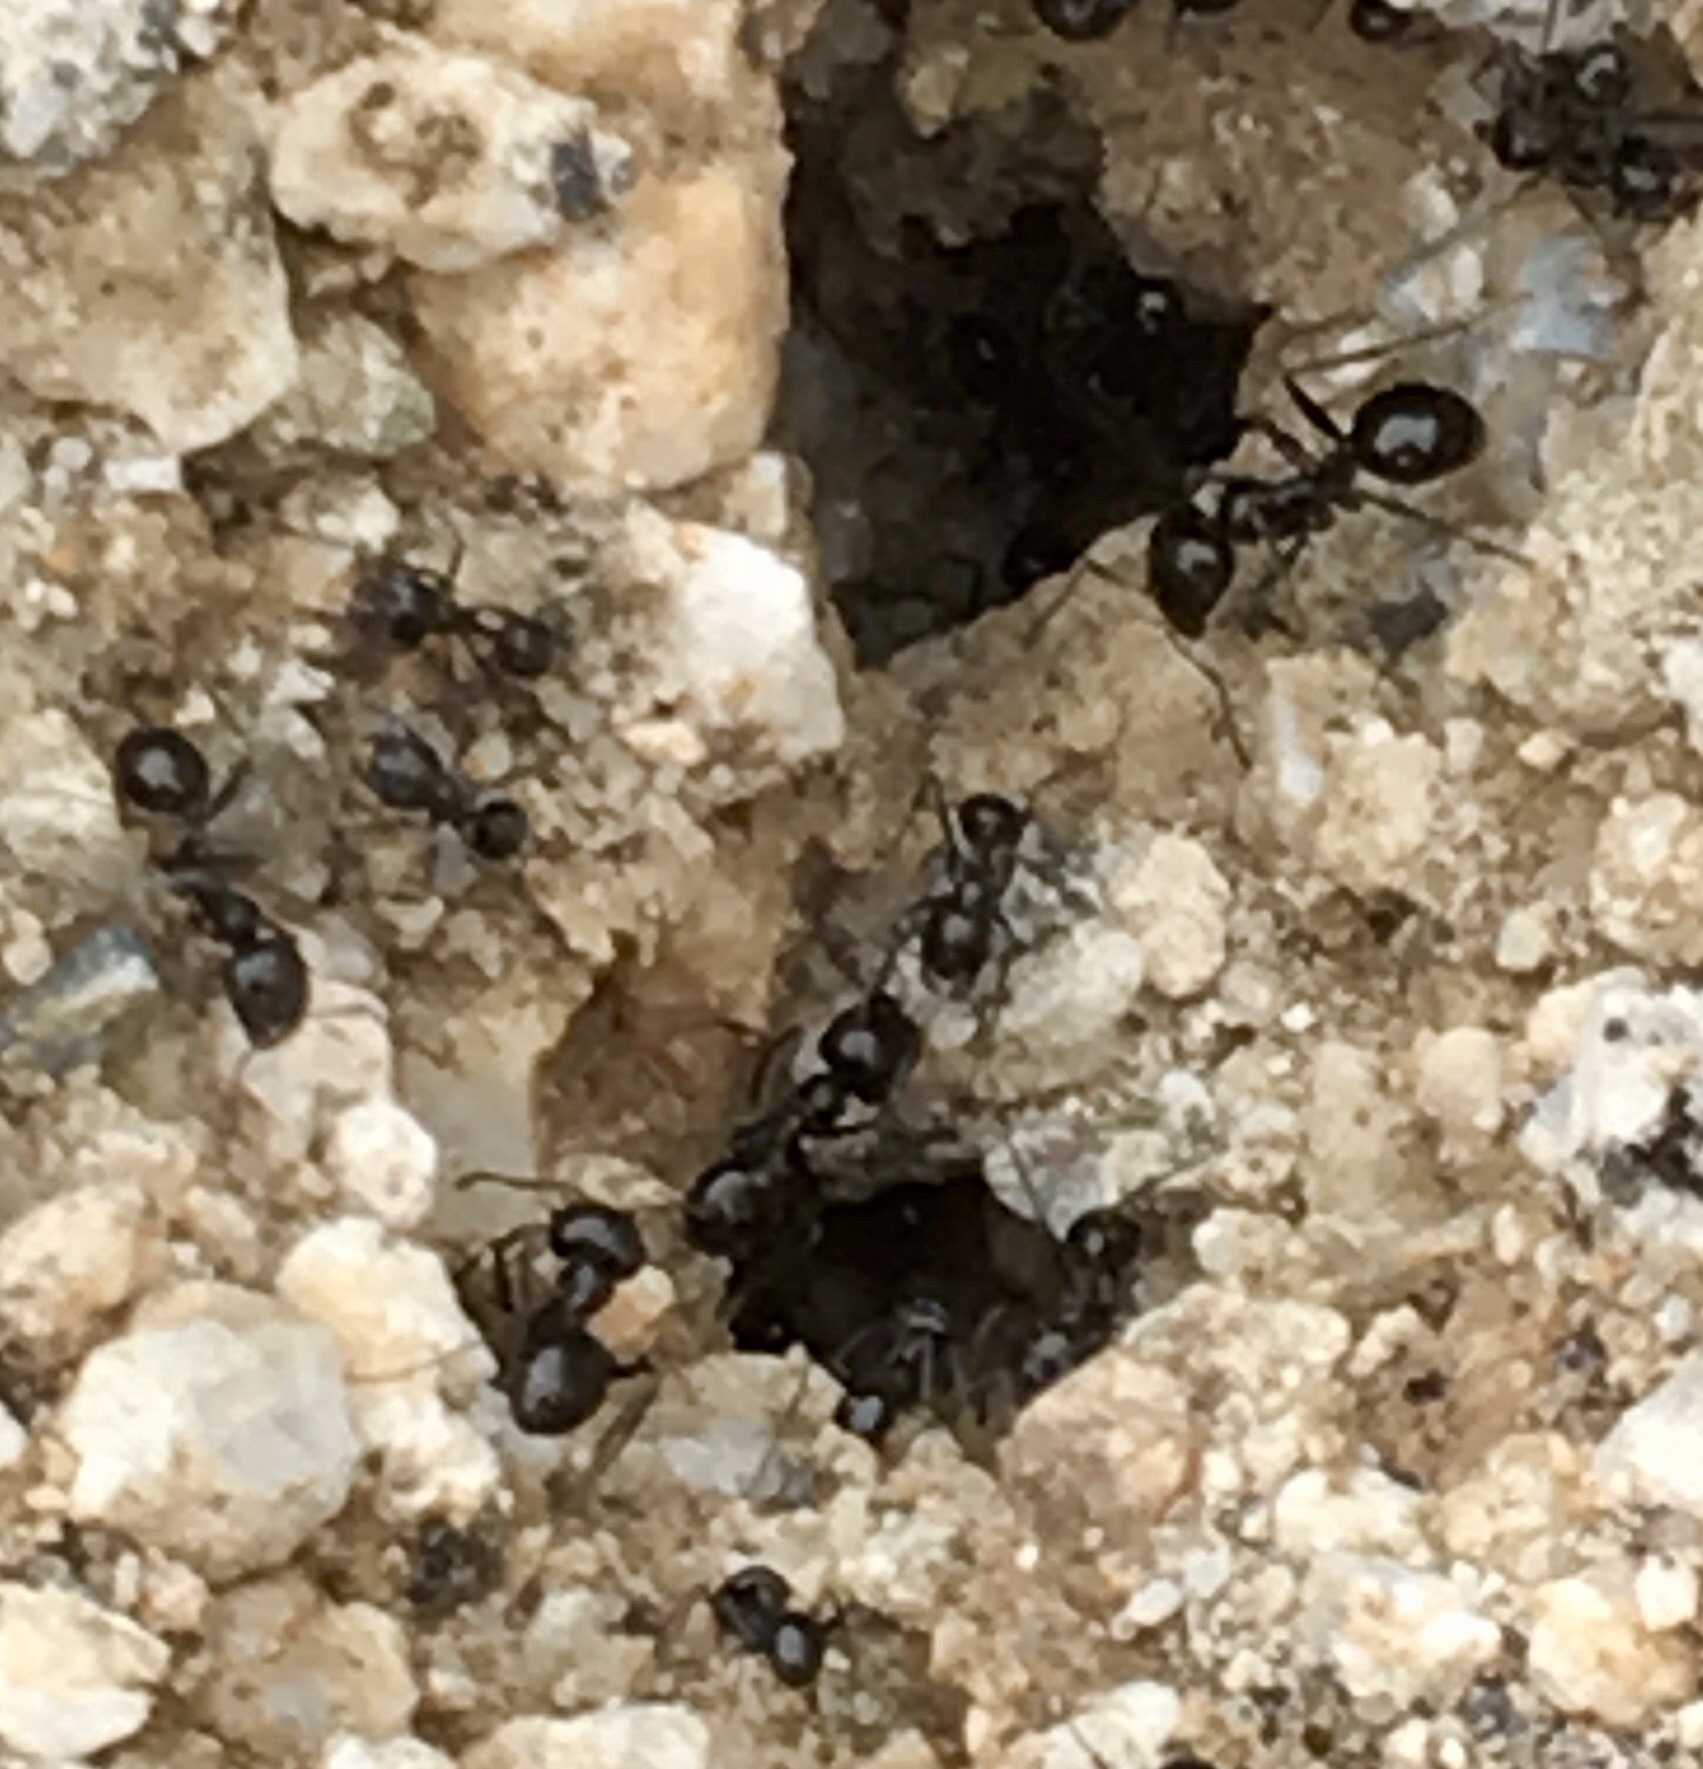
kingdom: Animalia
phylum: Arthropoda
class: Insecta
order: Hymenoptera
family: Formicidae
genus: Messor
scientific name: Messor pergandei
